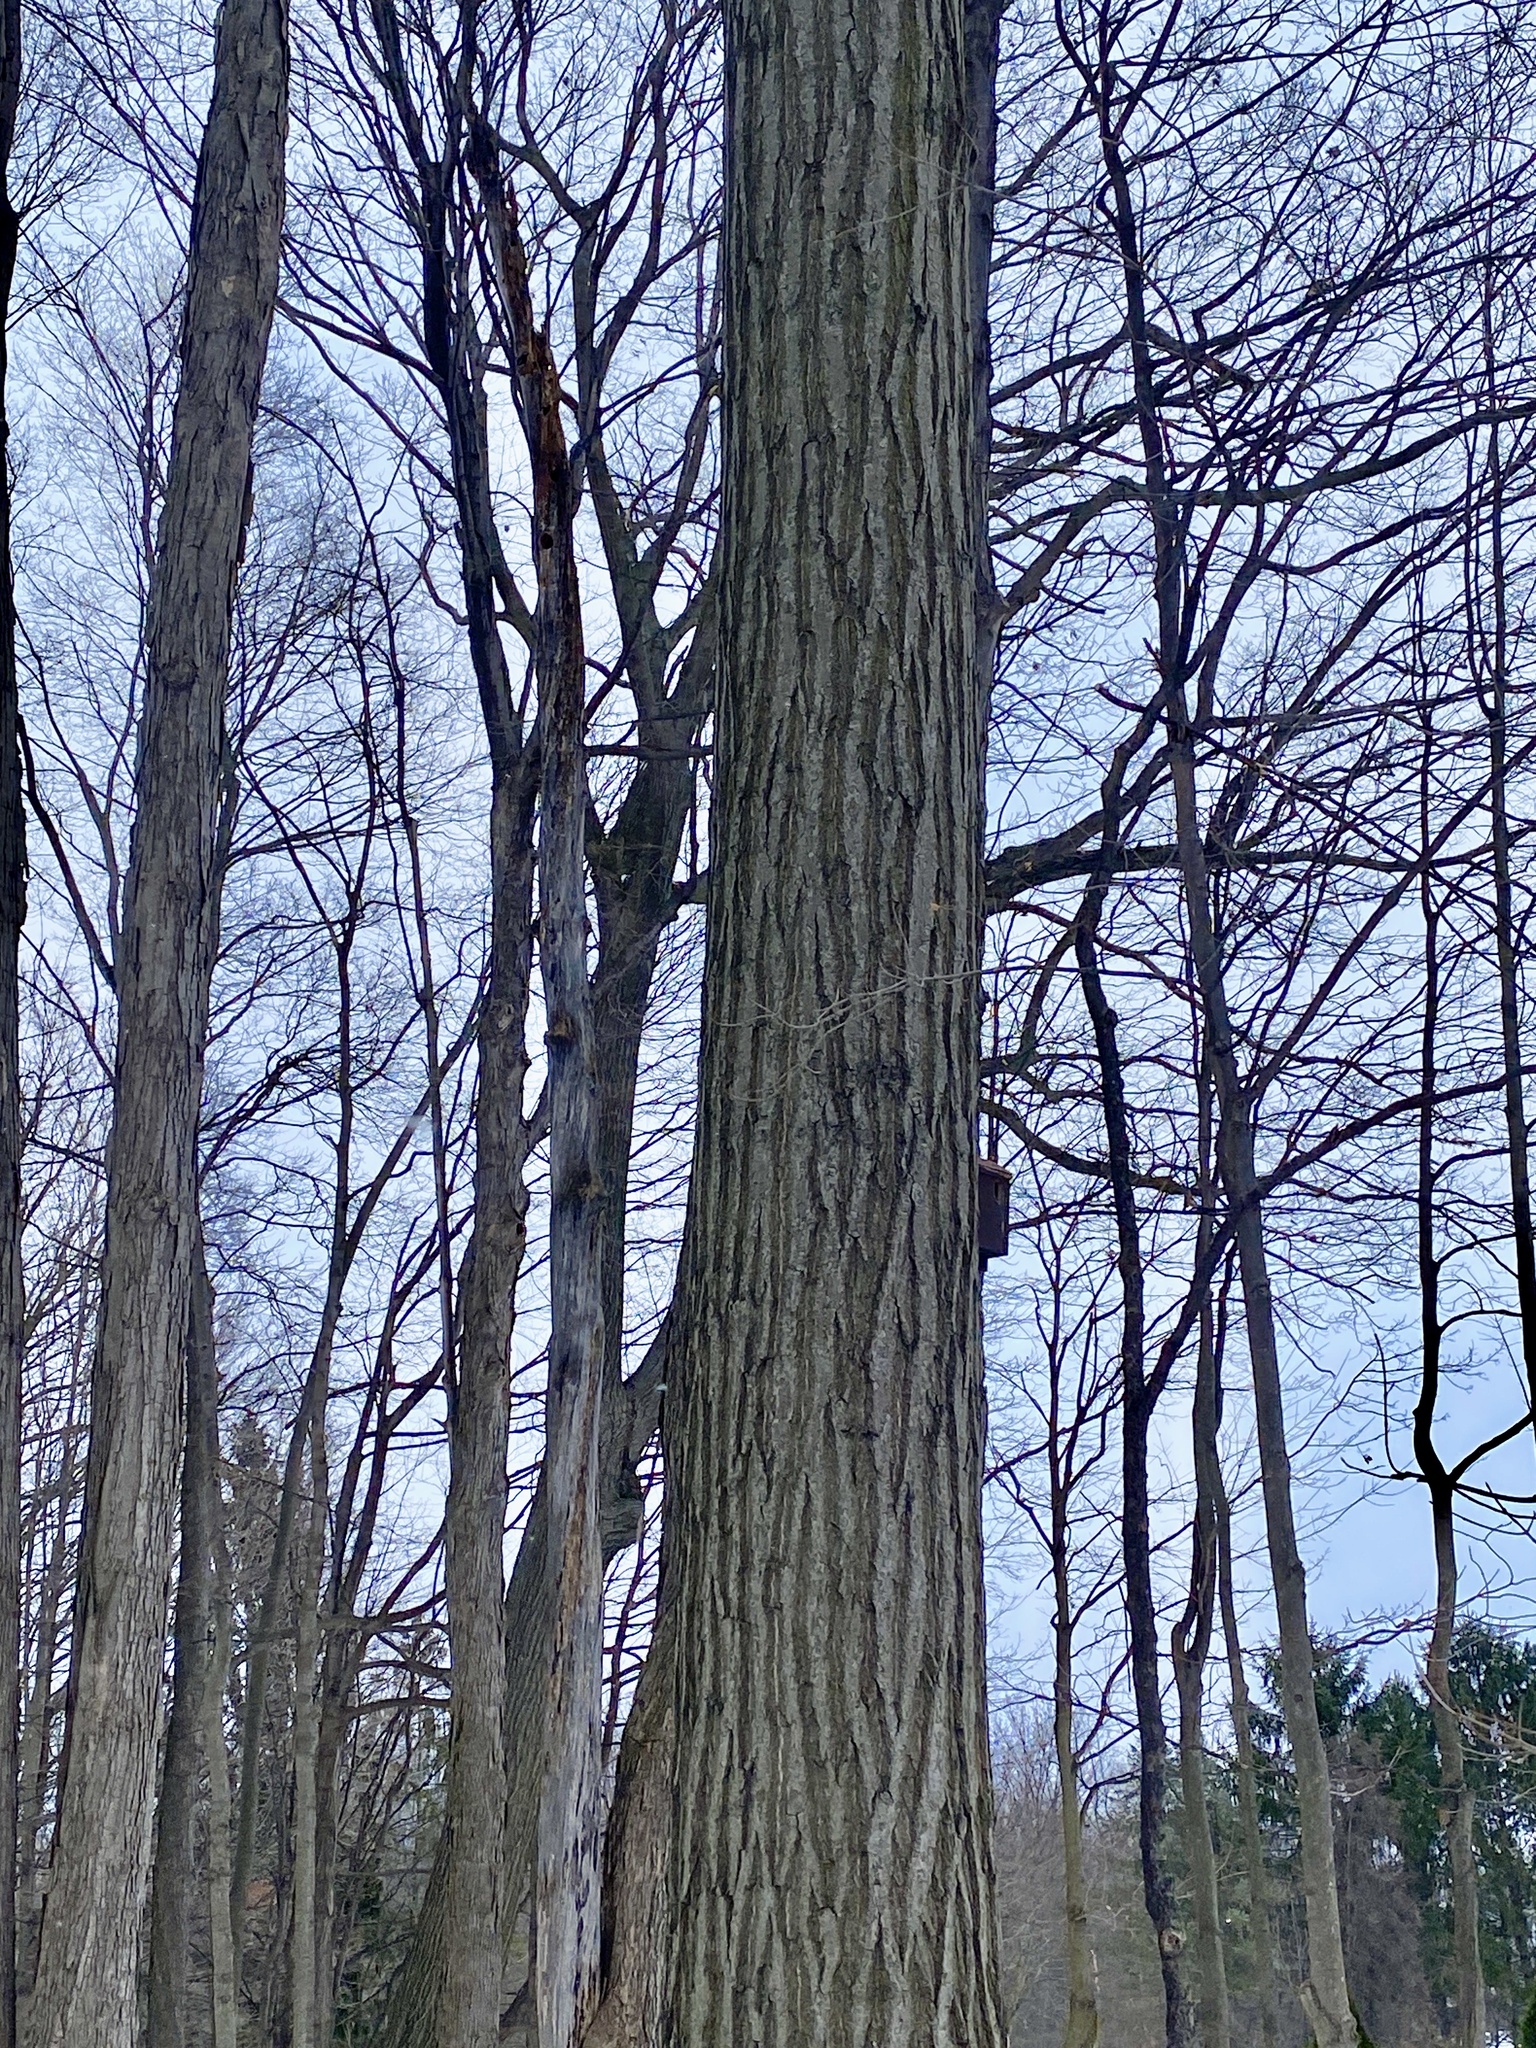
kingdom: Plantae
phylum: Tracheophyta
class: Magnoliopsida
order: Fagales
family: Fagaceae
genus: Quercus
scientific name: Quercus rubra
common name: Red oak
